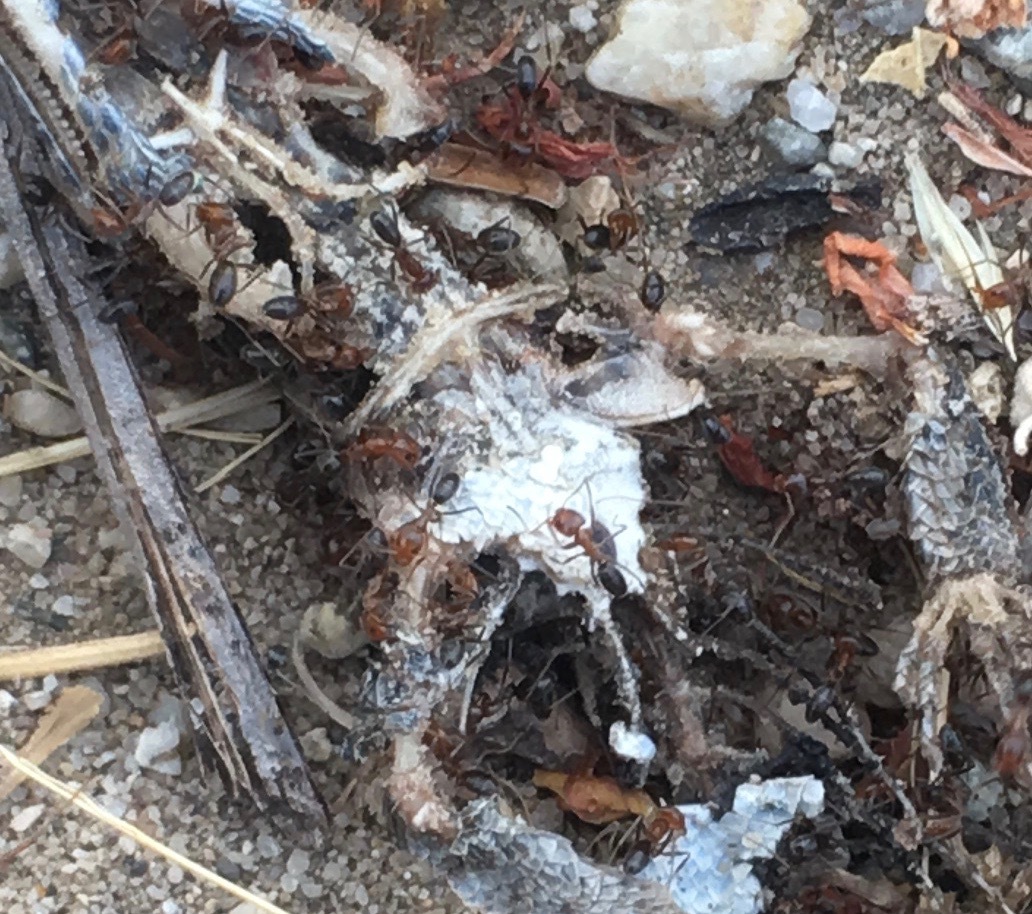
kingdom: Animalia
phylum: Arthropoda
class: Insecta
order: Hymenoptera
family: Formicidae
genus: Dorymyrmex
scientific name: Dorymyrmex bicolor
